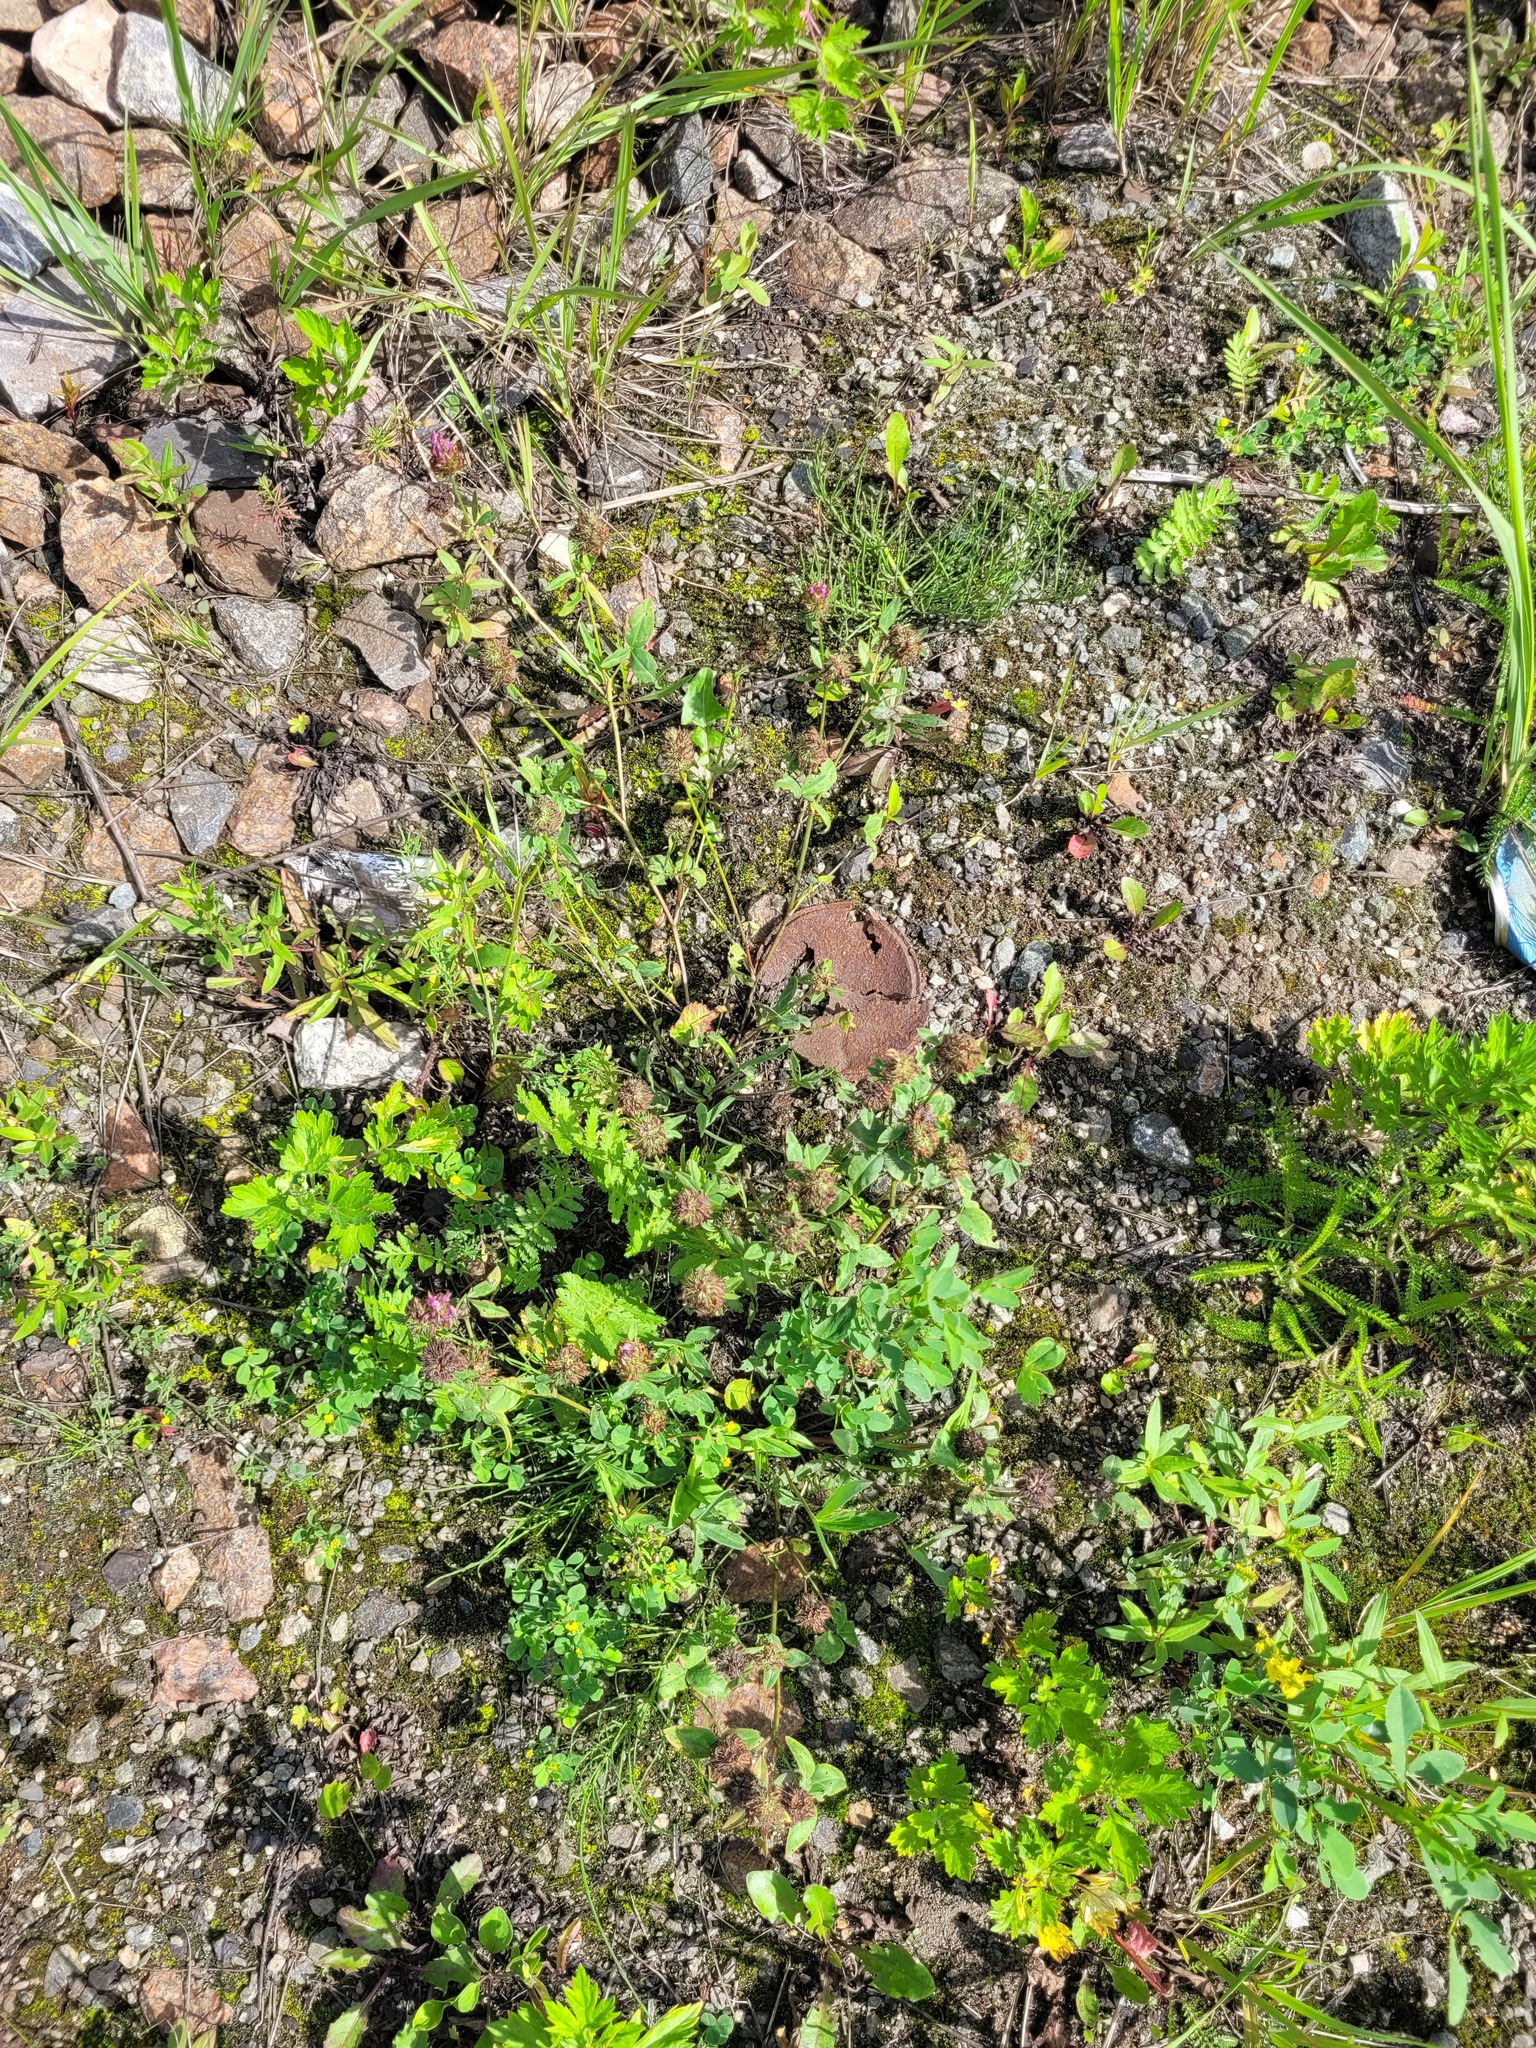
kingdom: Plantae
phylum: Tracheophyta
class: Magnoliopsida
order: Fabales
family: Fabaceae
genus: Trifolium
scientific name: Trifolium pratense
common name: Red clover
